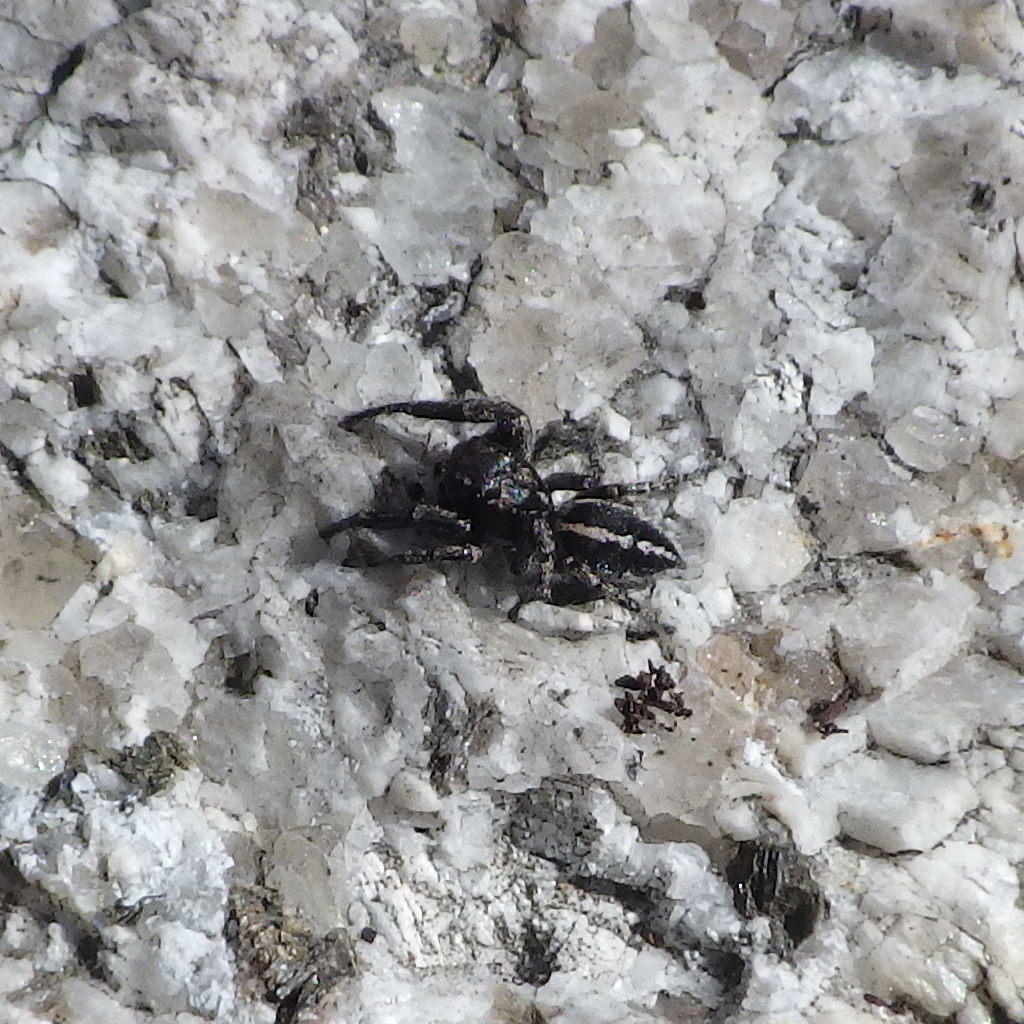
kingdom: Animalia
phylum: Arthropoda
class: Arachnida
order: Araneae
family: Salticidae
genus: Pellenes
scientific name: Pellenes peninsularis
